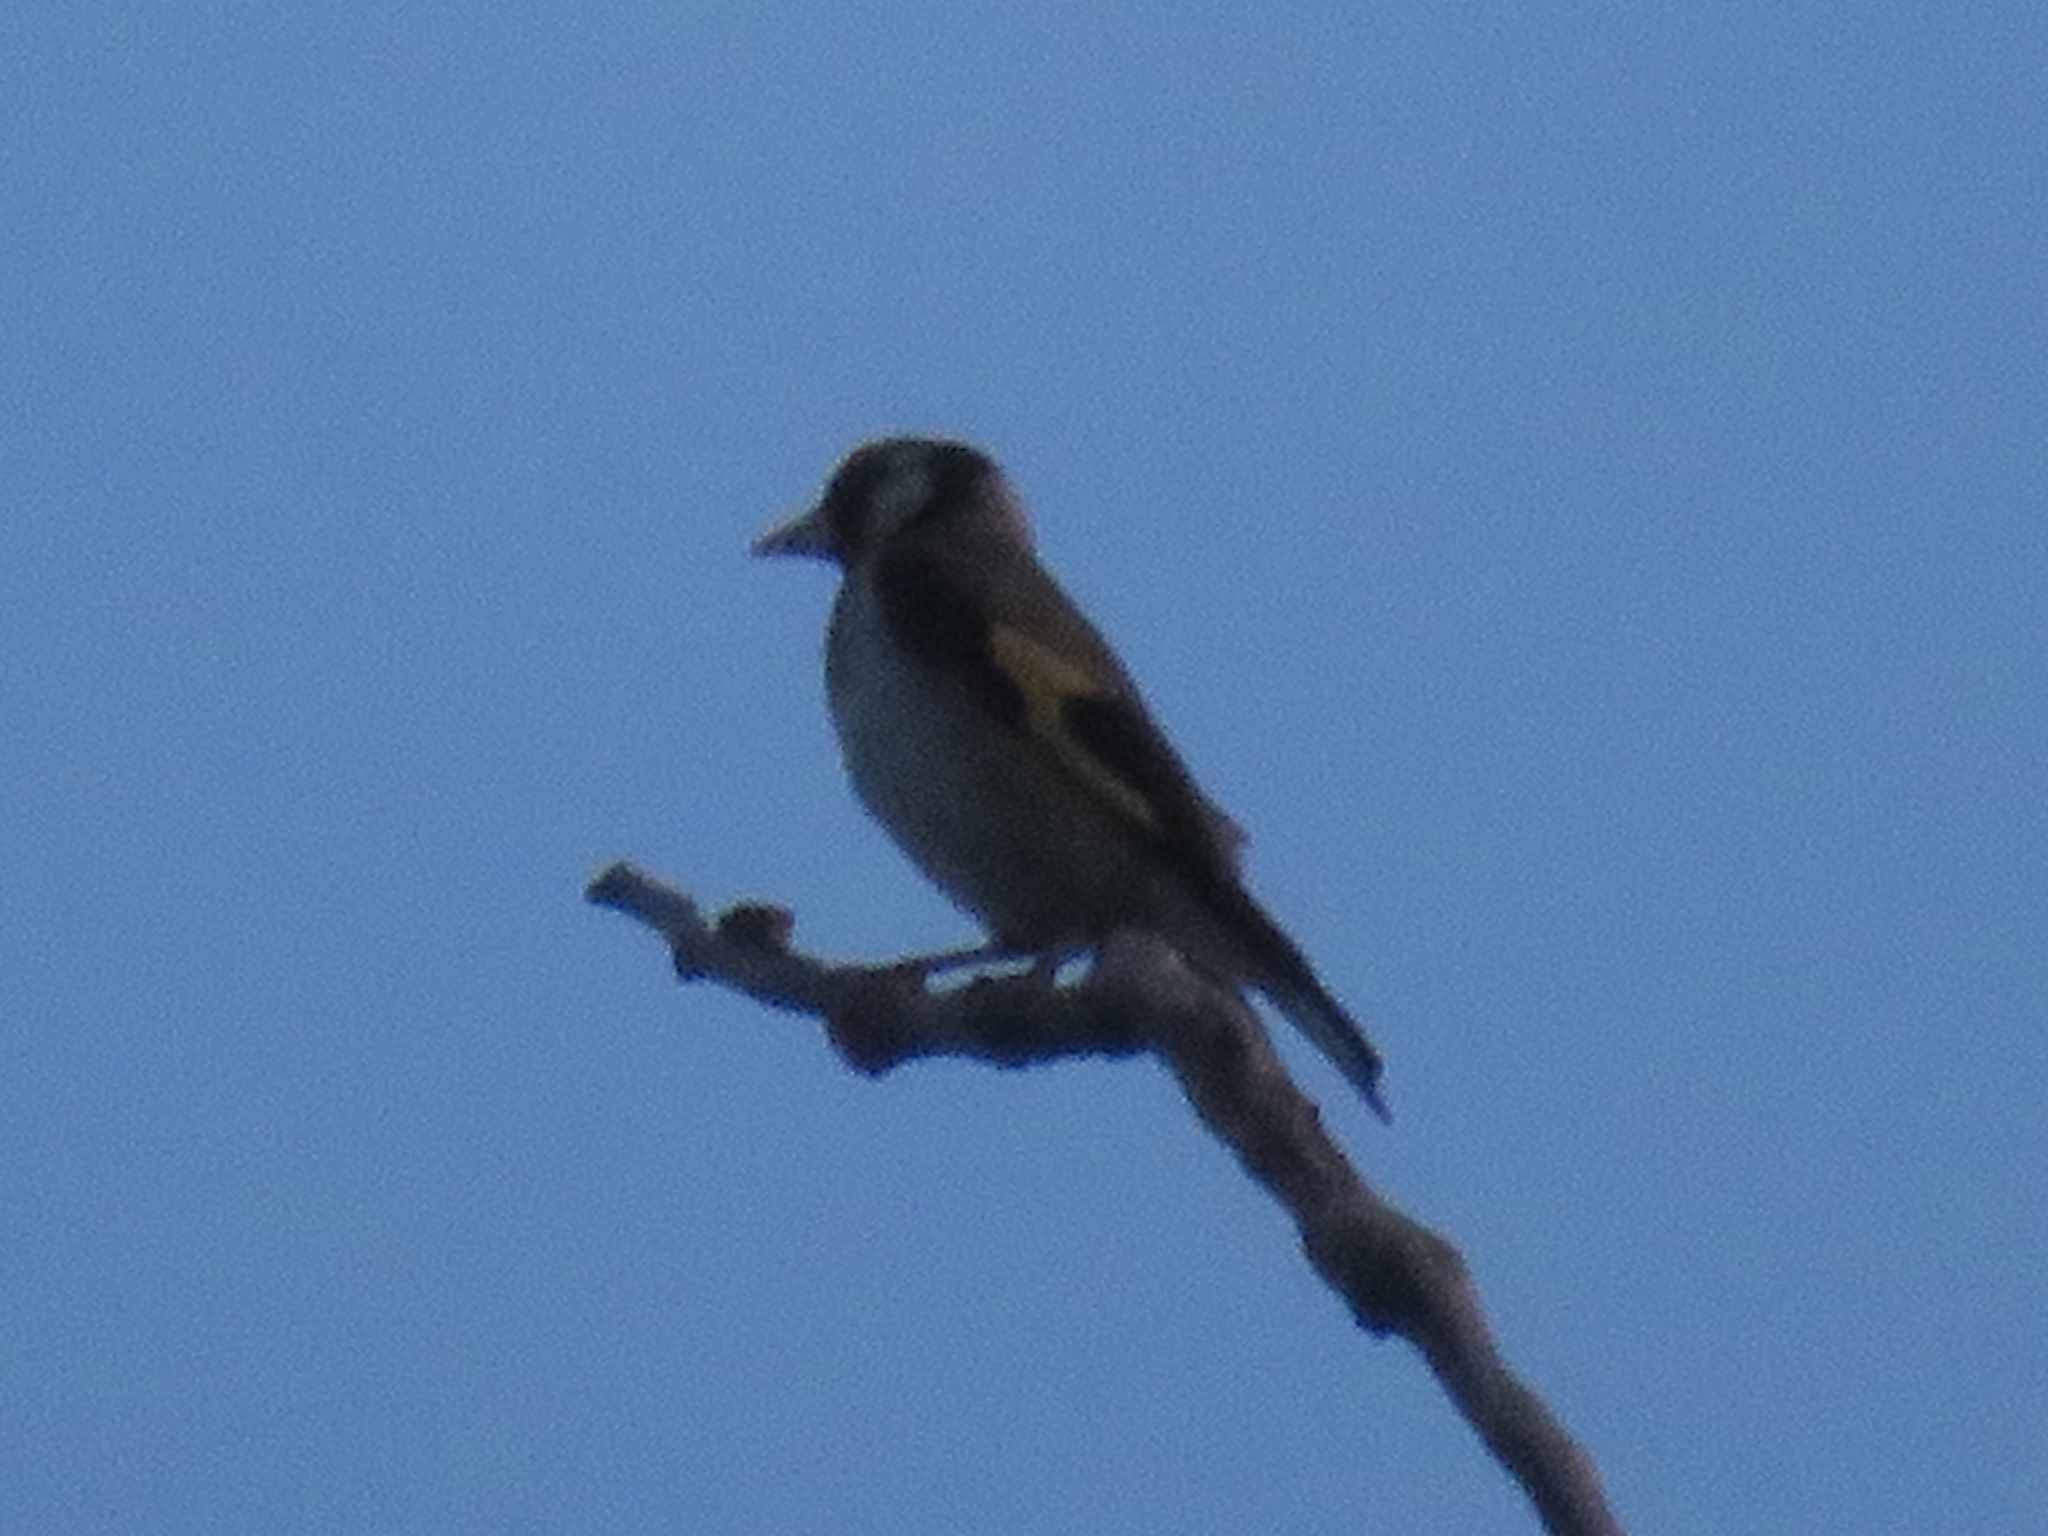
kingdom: Animalia
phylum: Chordata
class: Aves
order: Passeriformes
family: Fringillidae
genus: Carduelis
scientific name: Carduelis carduelis
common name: European goldfinch
